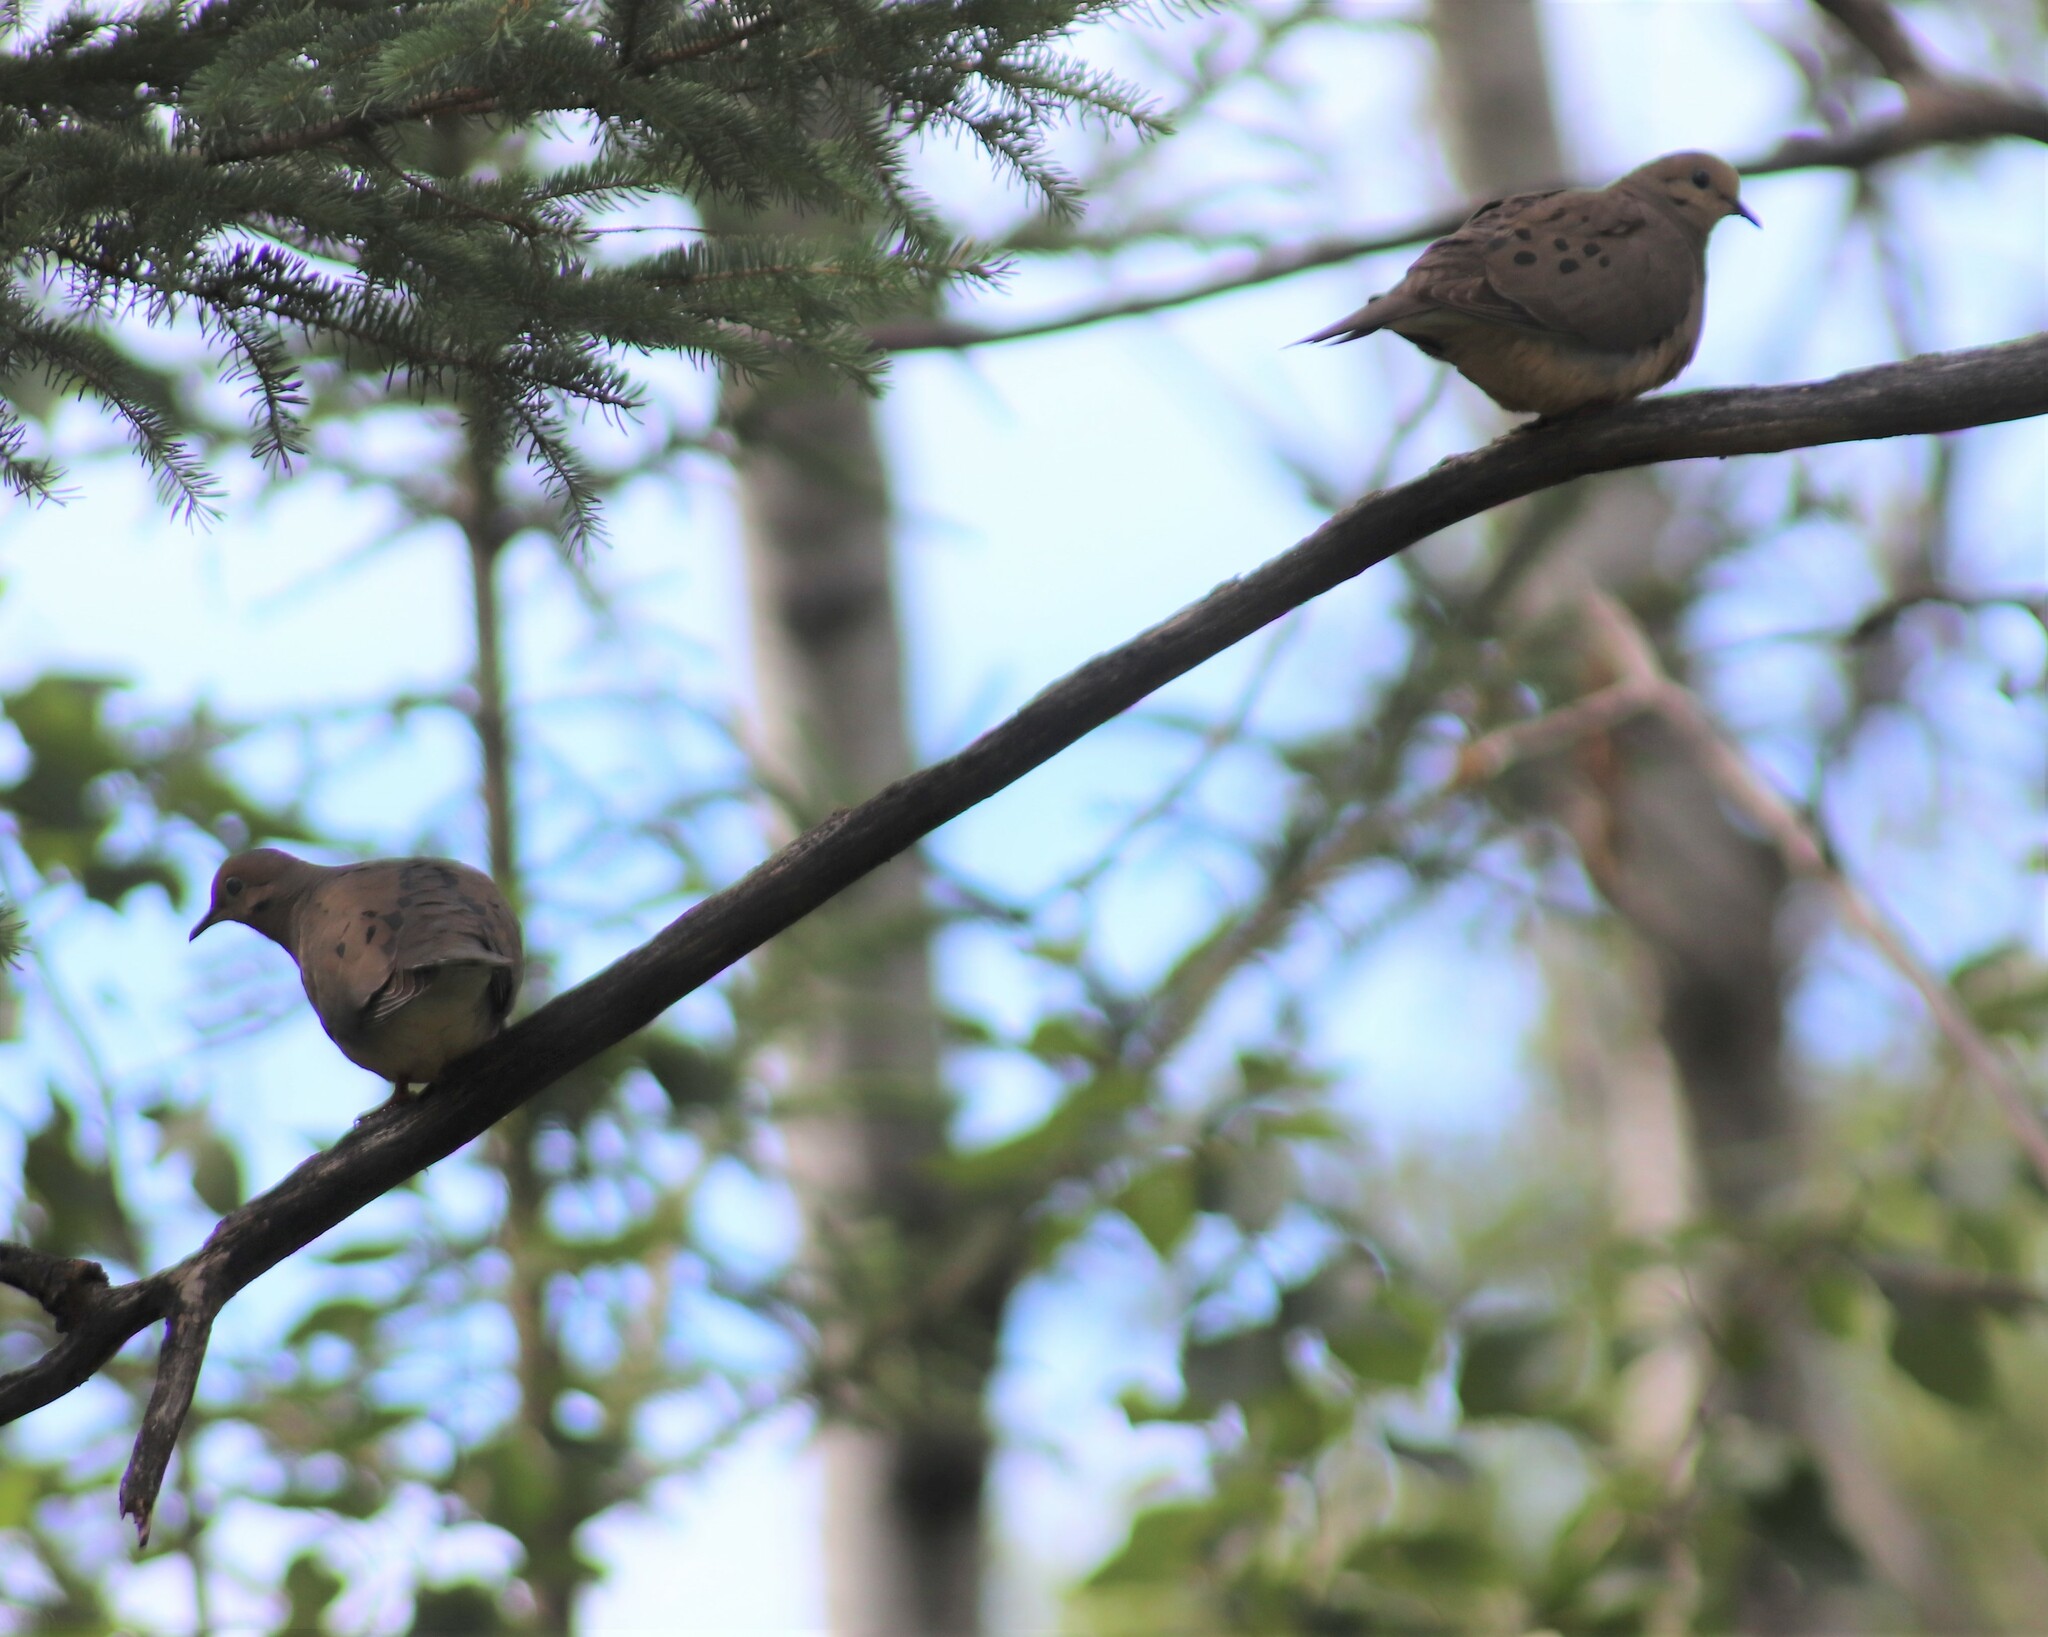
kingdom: Animalia
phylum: Chordata
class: Aves
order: Columbiformes
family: Columbidae
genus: Zenaida
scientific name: Zenaida macroura
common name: Mourning dove
